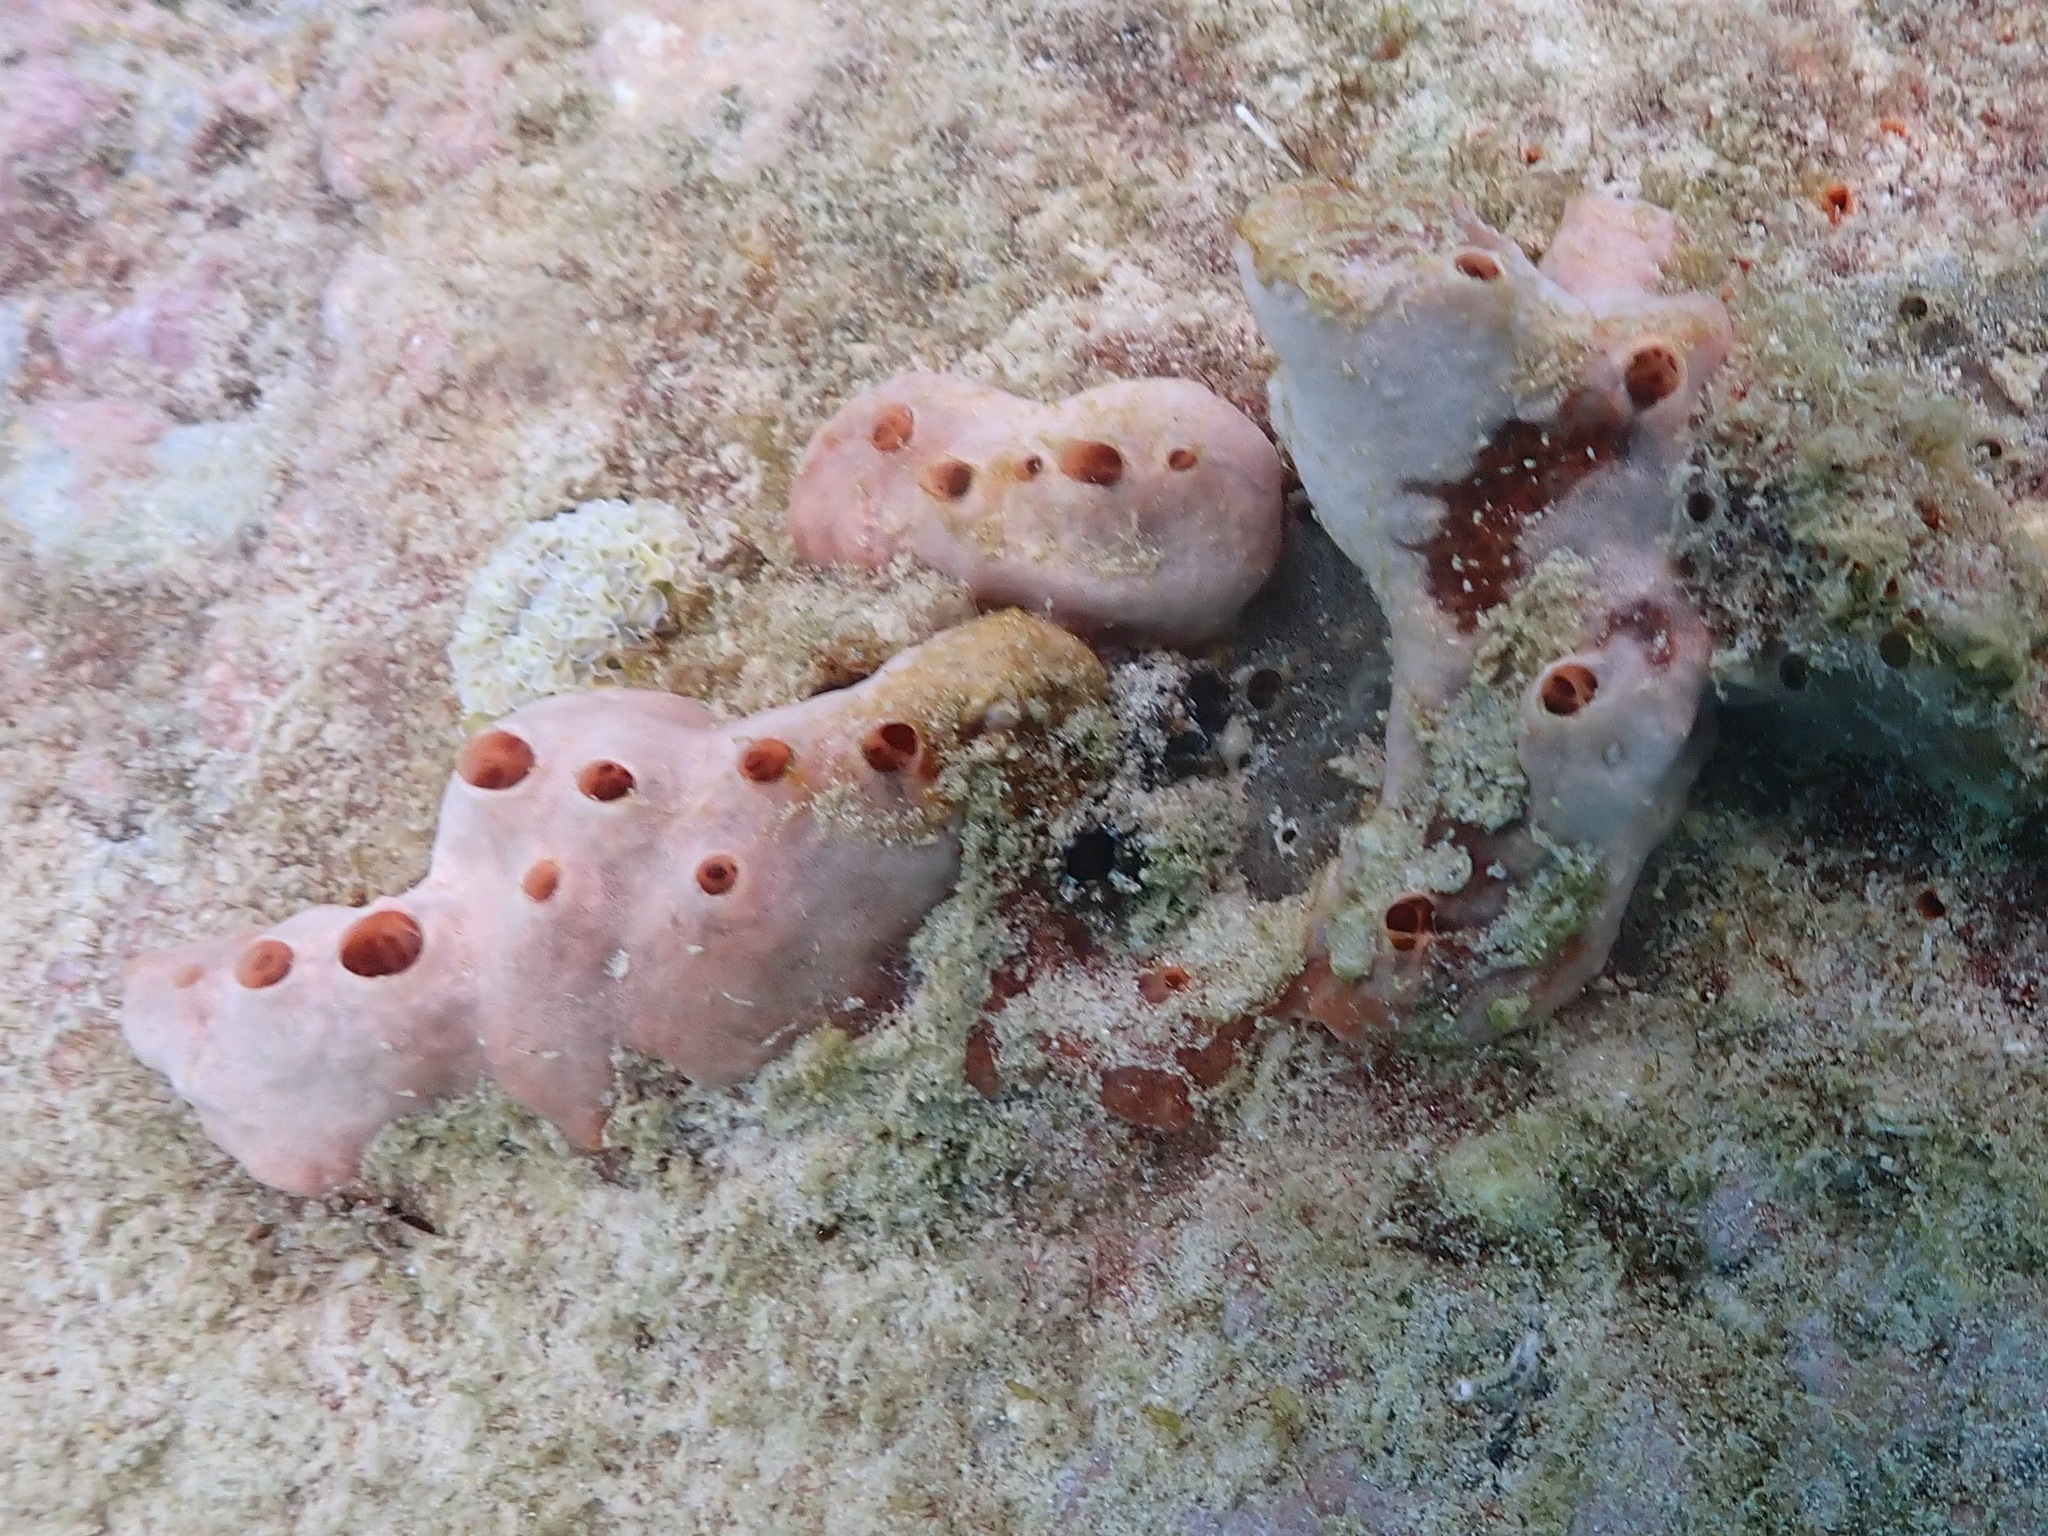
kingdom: Animalia
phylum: Porifera
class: Demospongiae
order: Poecilosclerida
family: Desmacididae
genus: Desmapsamma
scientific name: Desmapsamma anchorata
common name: Lumpy overgrowing sponge
